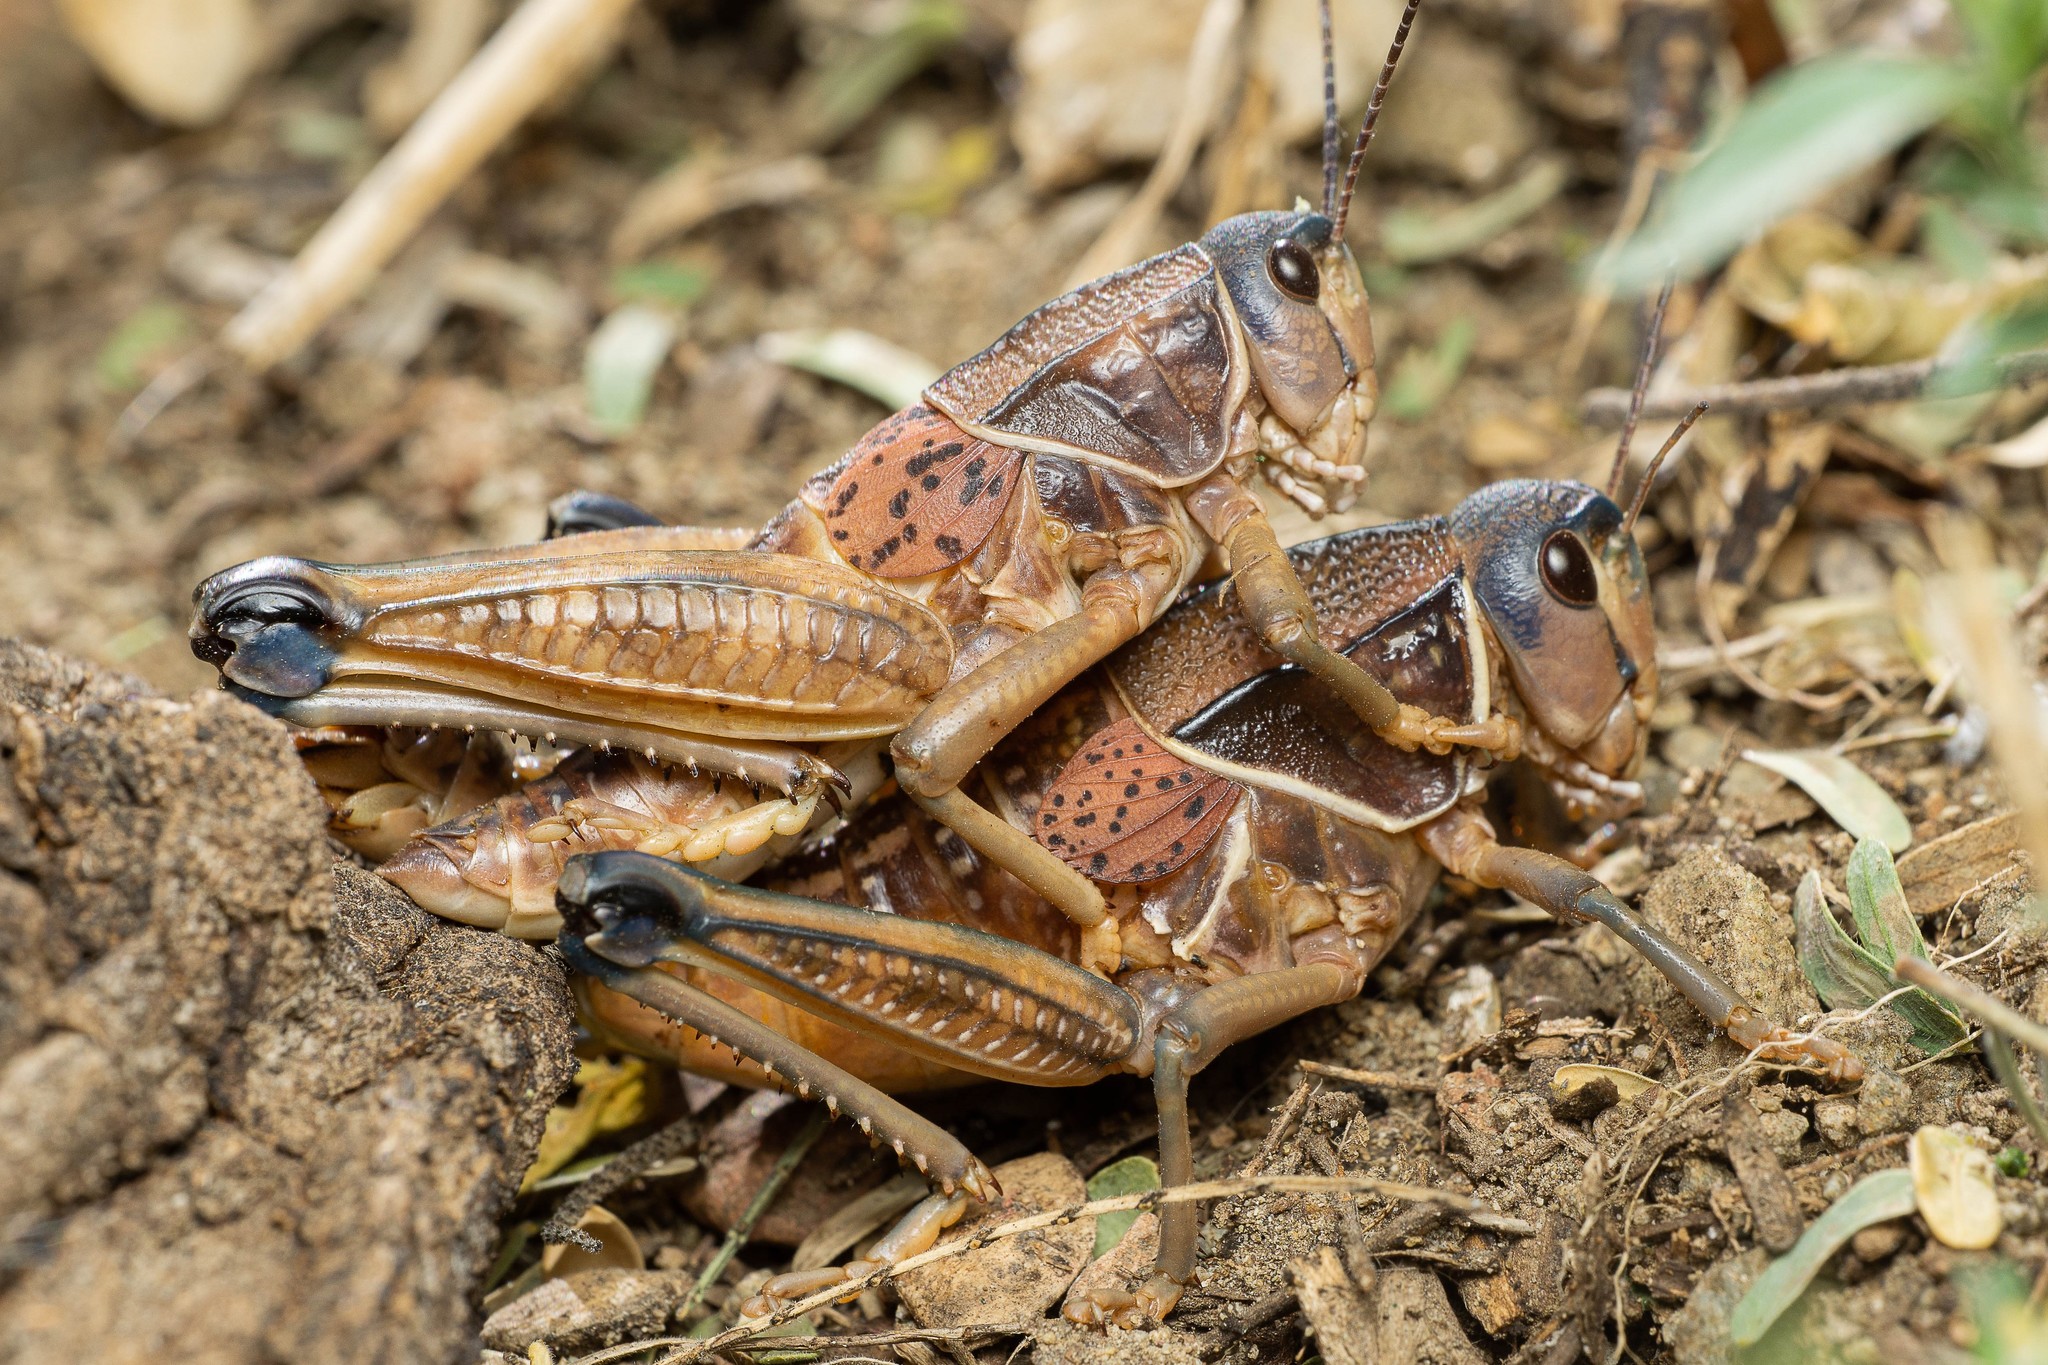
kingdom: Animalia
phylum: Arthropoda
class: Insecta
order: Orthoptera
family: Romaleidae
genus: Brachystola
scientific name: Brachystola magna
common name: Plains lubber grasshopper
